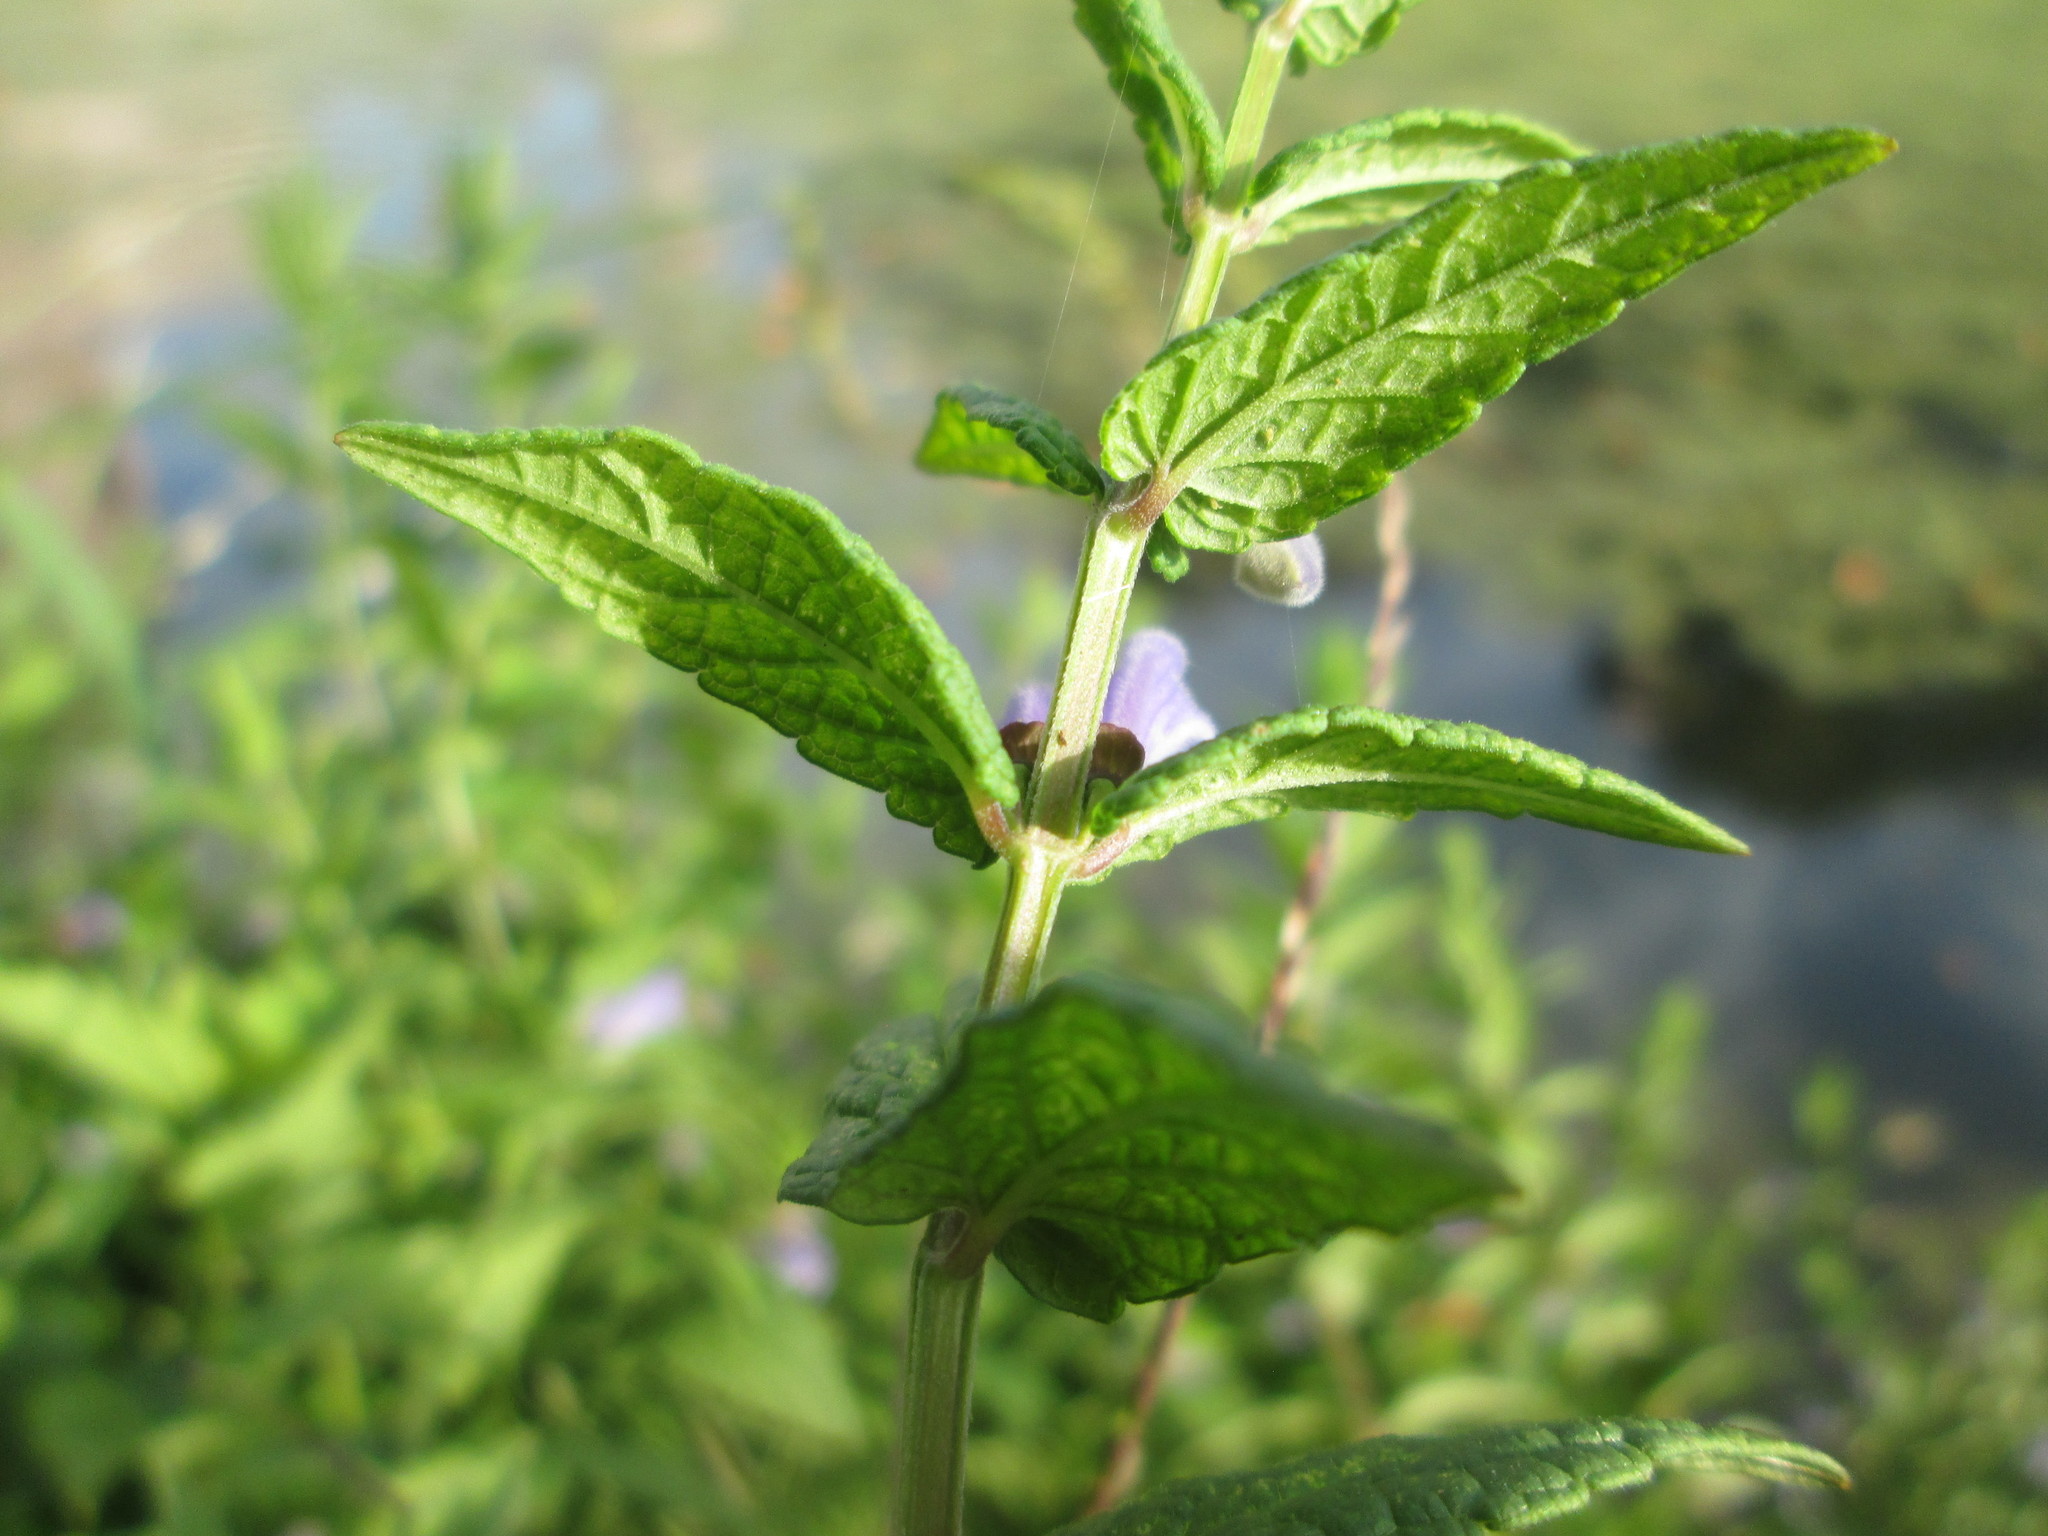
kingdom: Plantae
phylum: Tracheophyta
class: Magnoliopsida
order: Lamiales
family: Lamiaceae
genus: Scutellaria
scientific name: Scutellaria galericulata
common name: Skullcap
